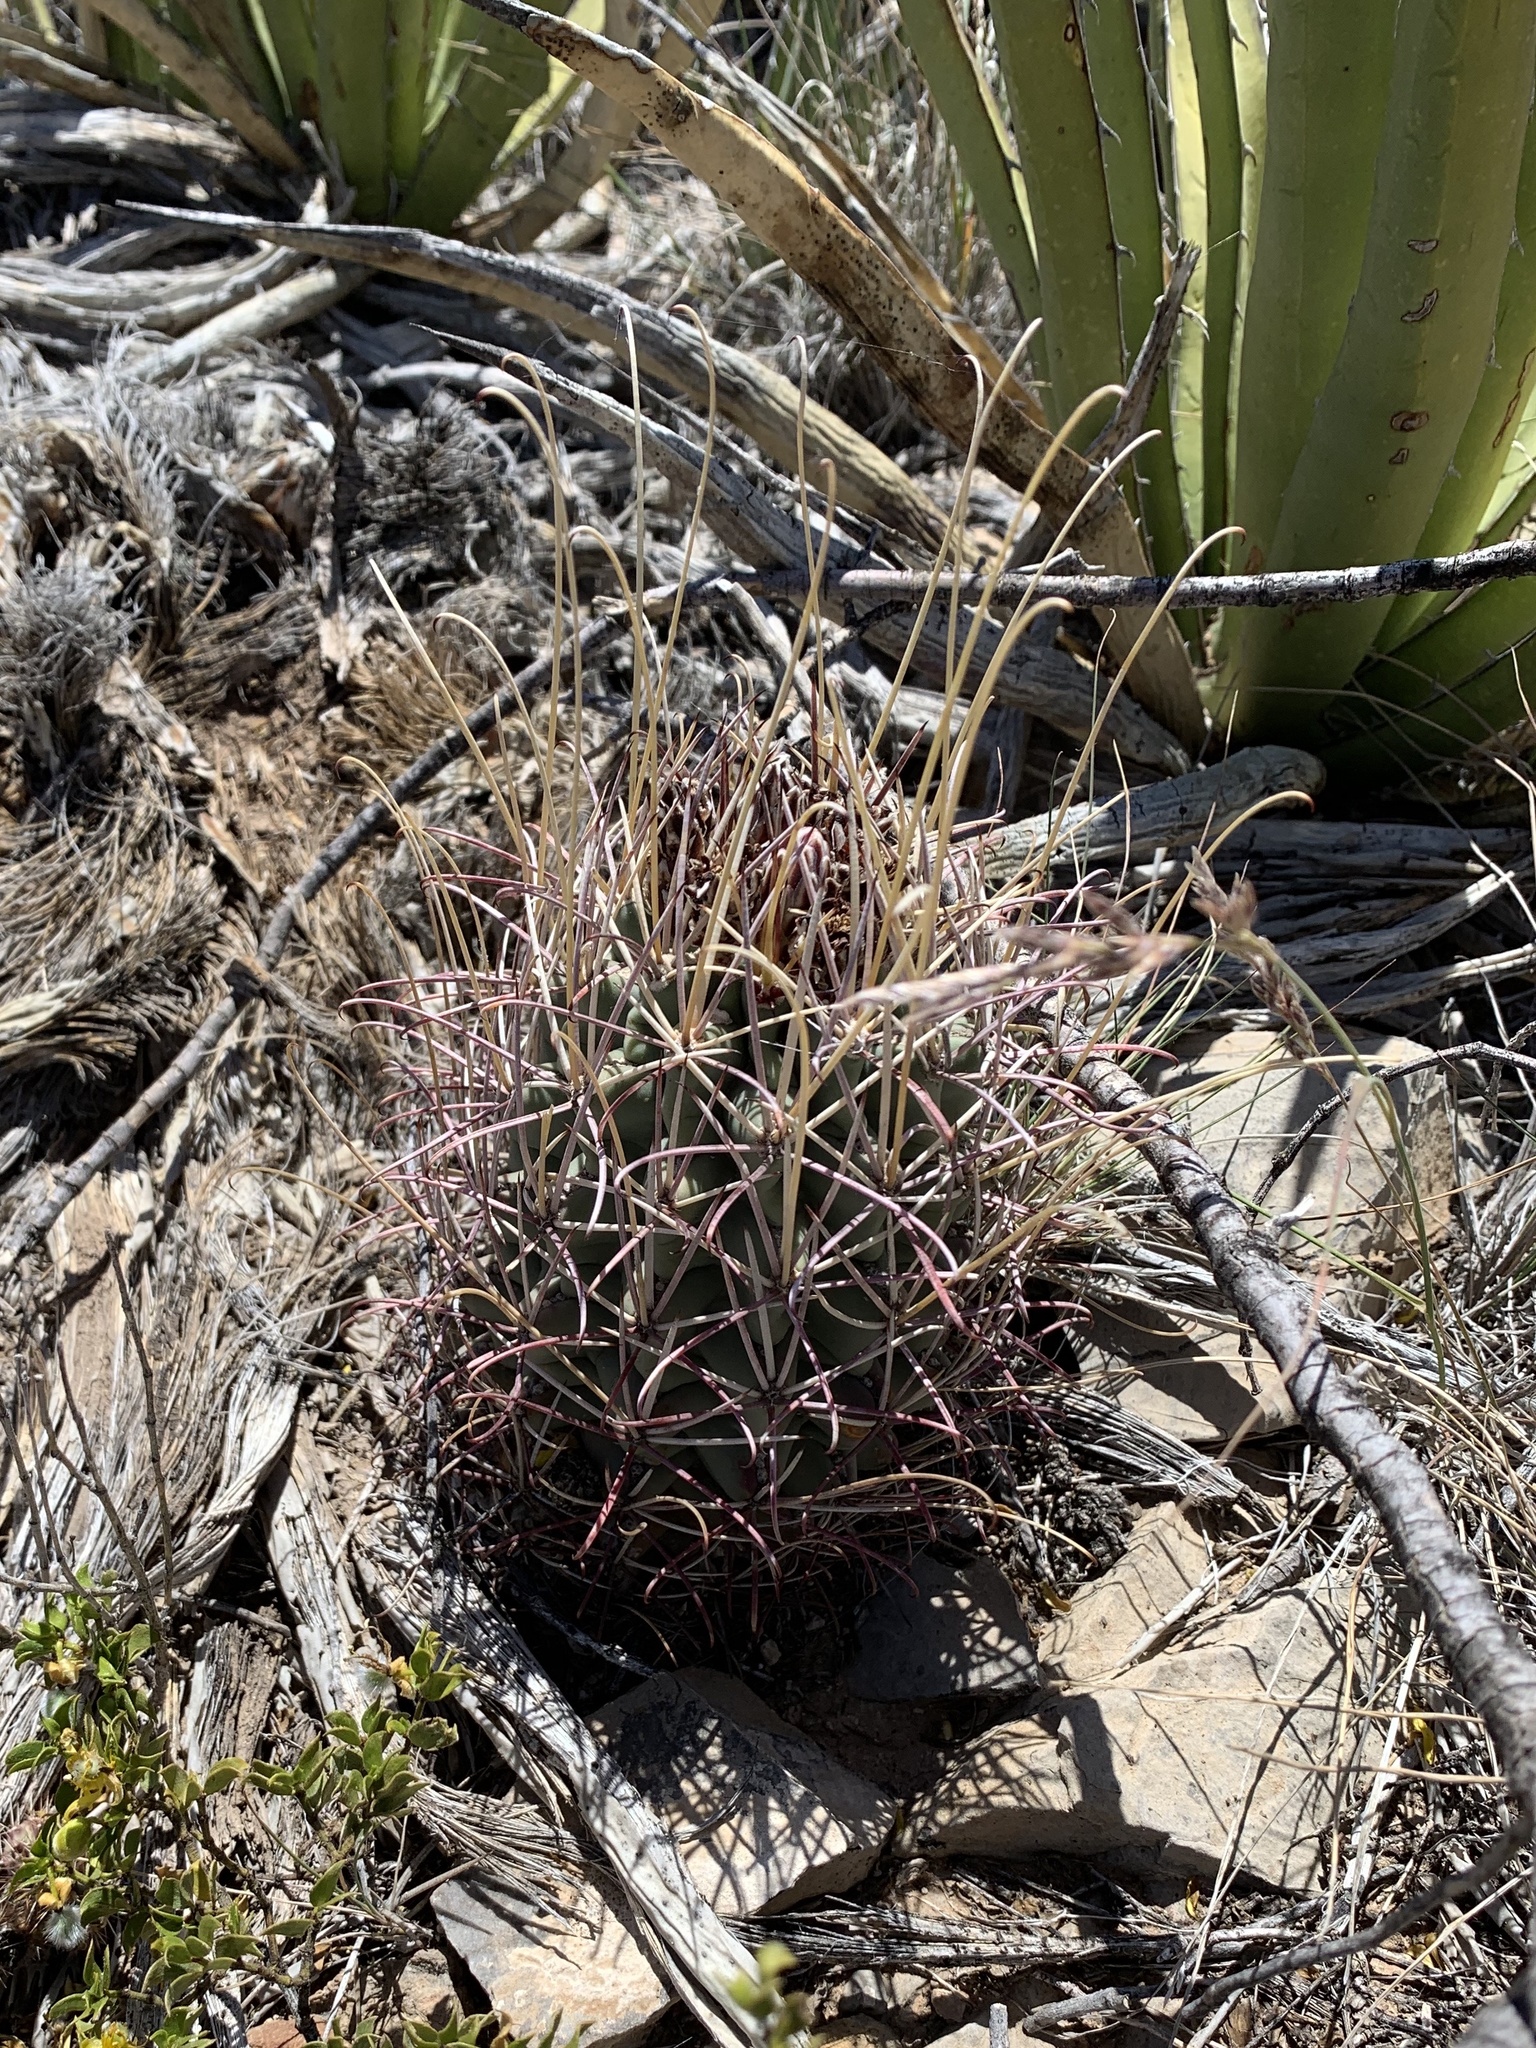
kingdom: Plantae
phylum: Tracheophyta
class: Magnoliopsida
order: Caryophyllales
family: Cactaceae
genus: Ferocactus
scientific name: Ferocactus uncinatus
